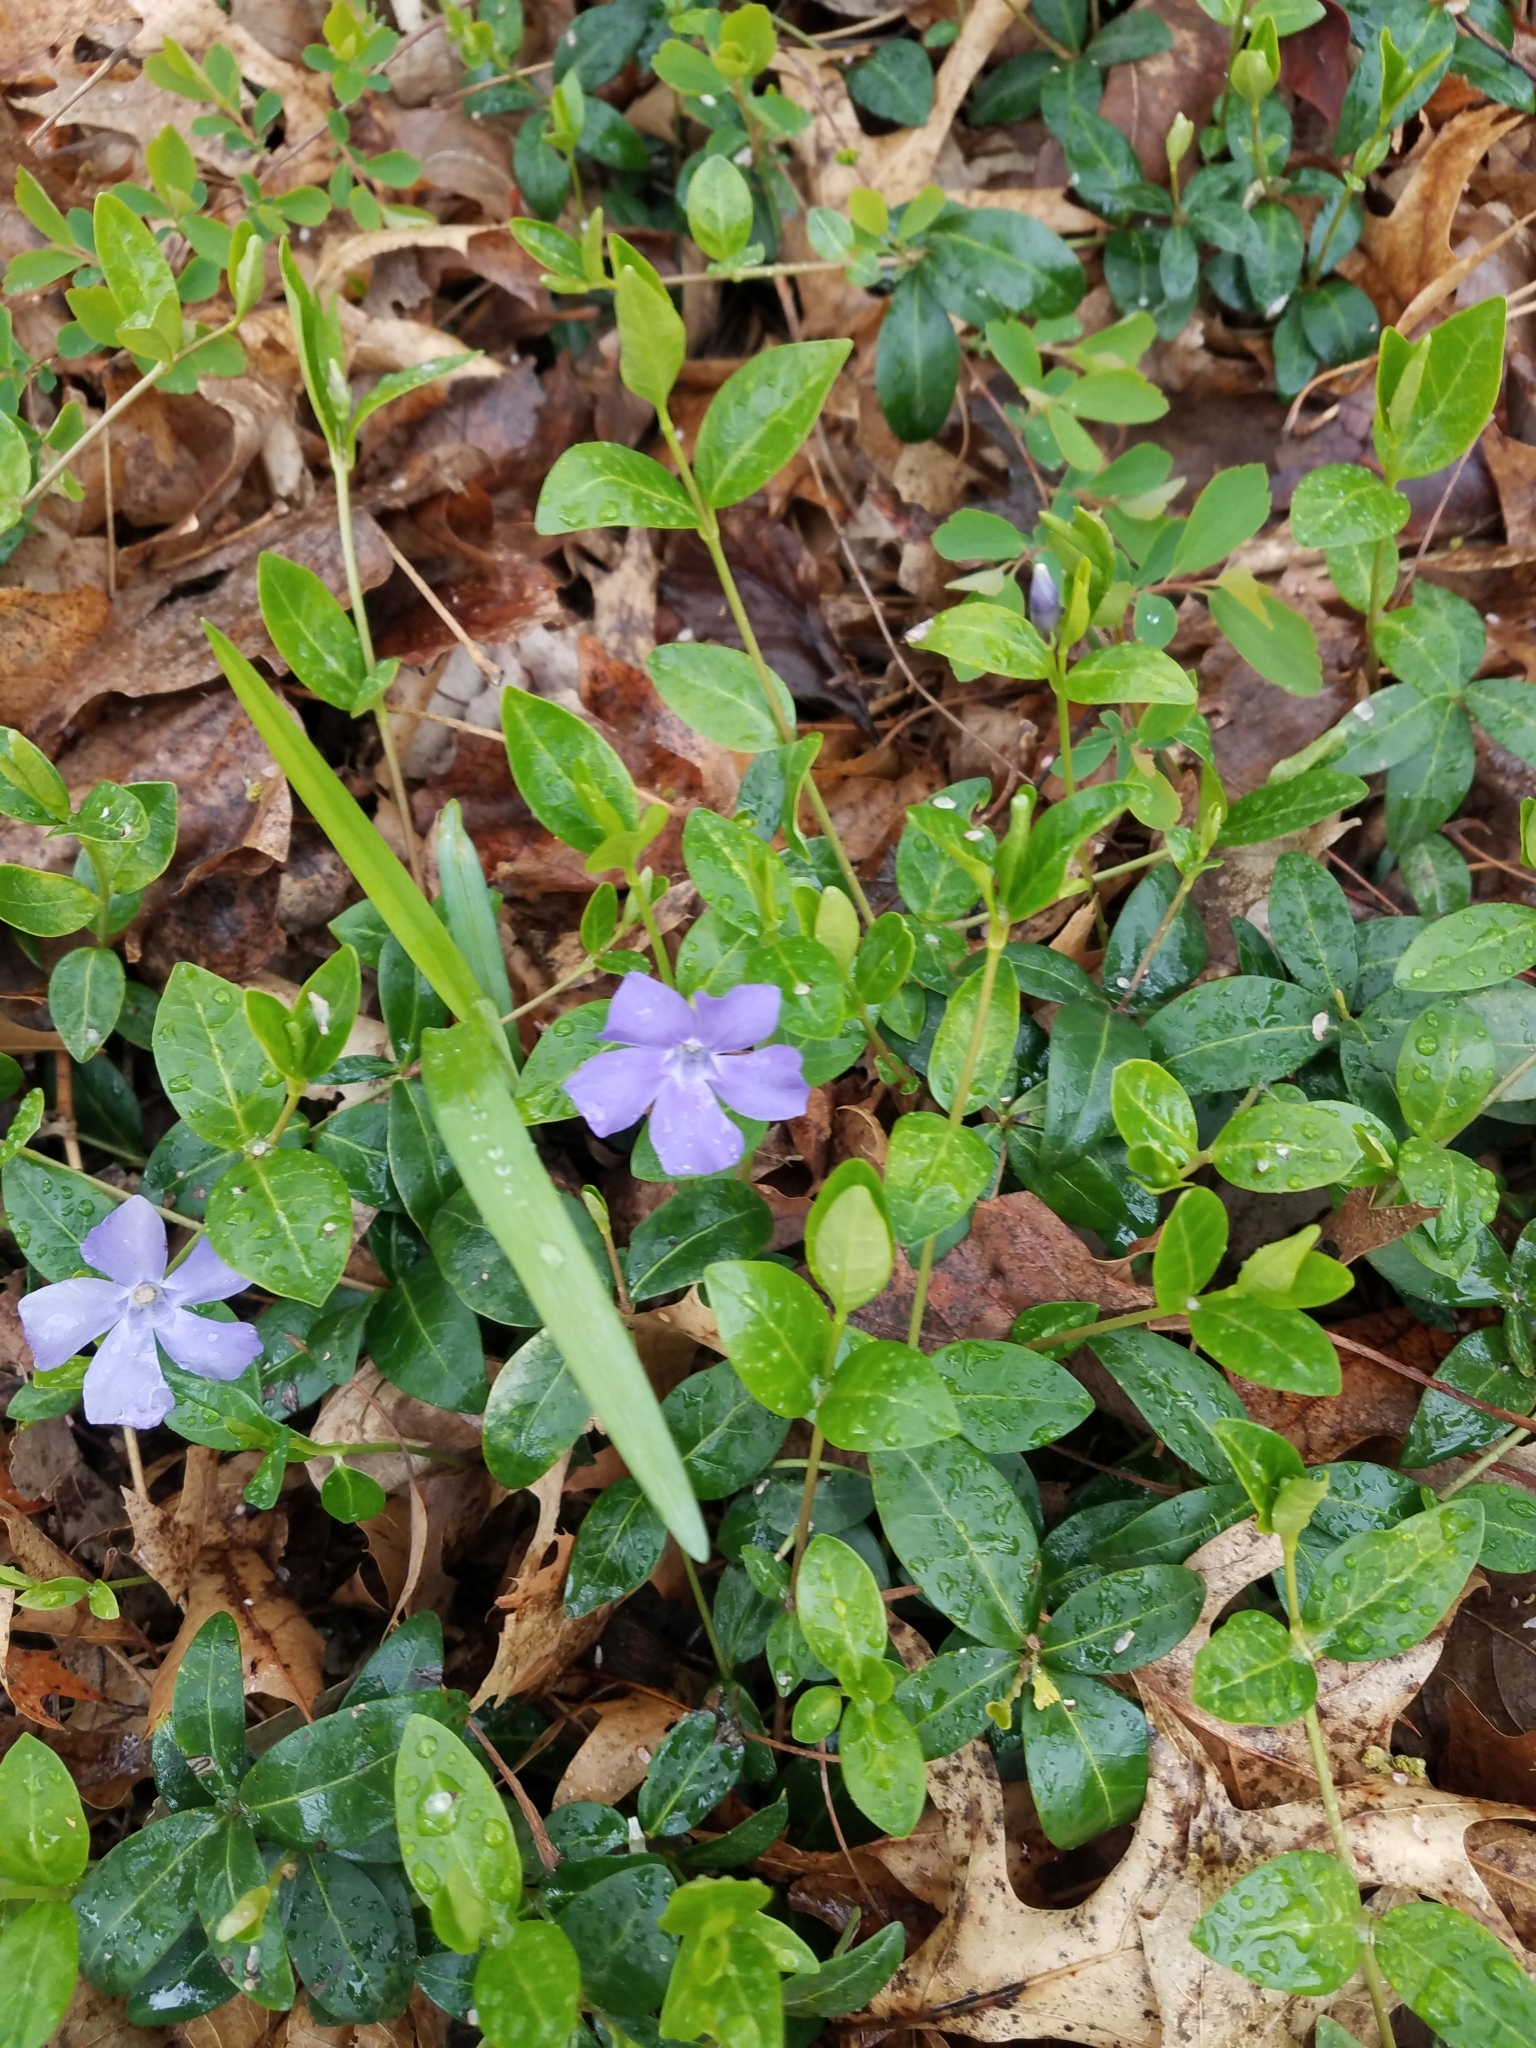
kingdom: Plantae
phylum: Tracheophyta
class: Magnoliopsida
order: Gentianales
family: Apocynaceae
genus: Vinca
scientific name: Vinca minor
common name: Lesser periwinkle
